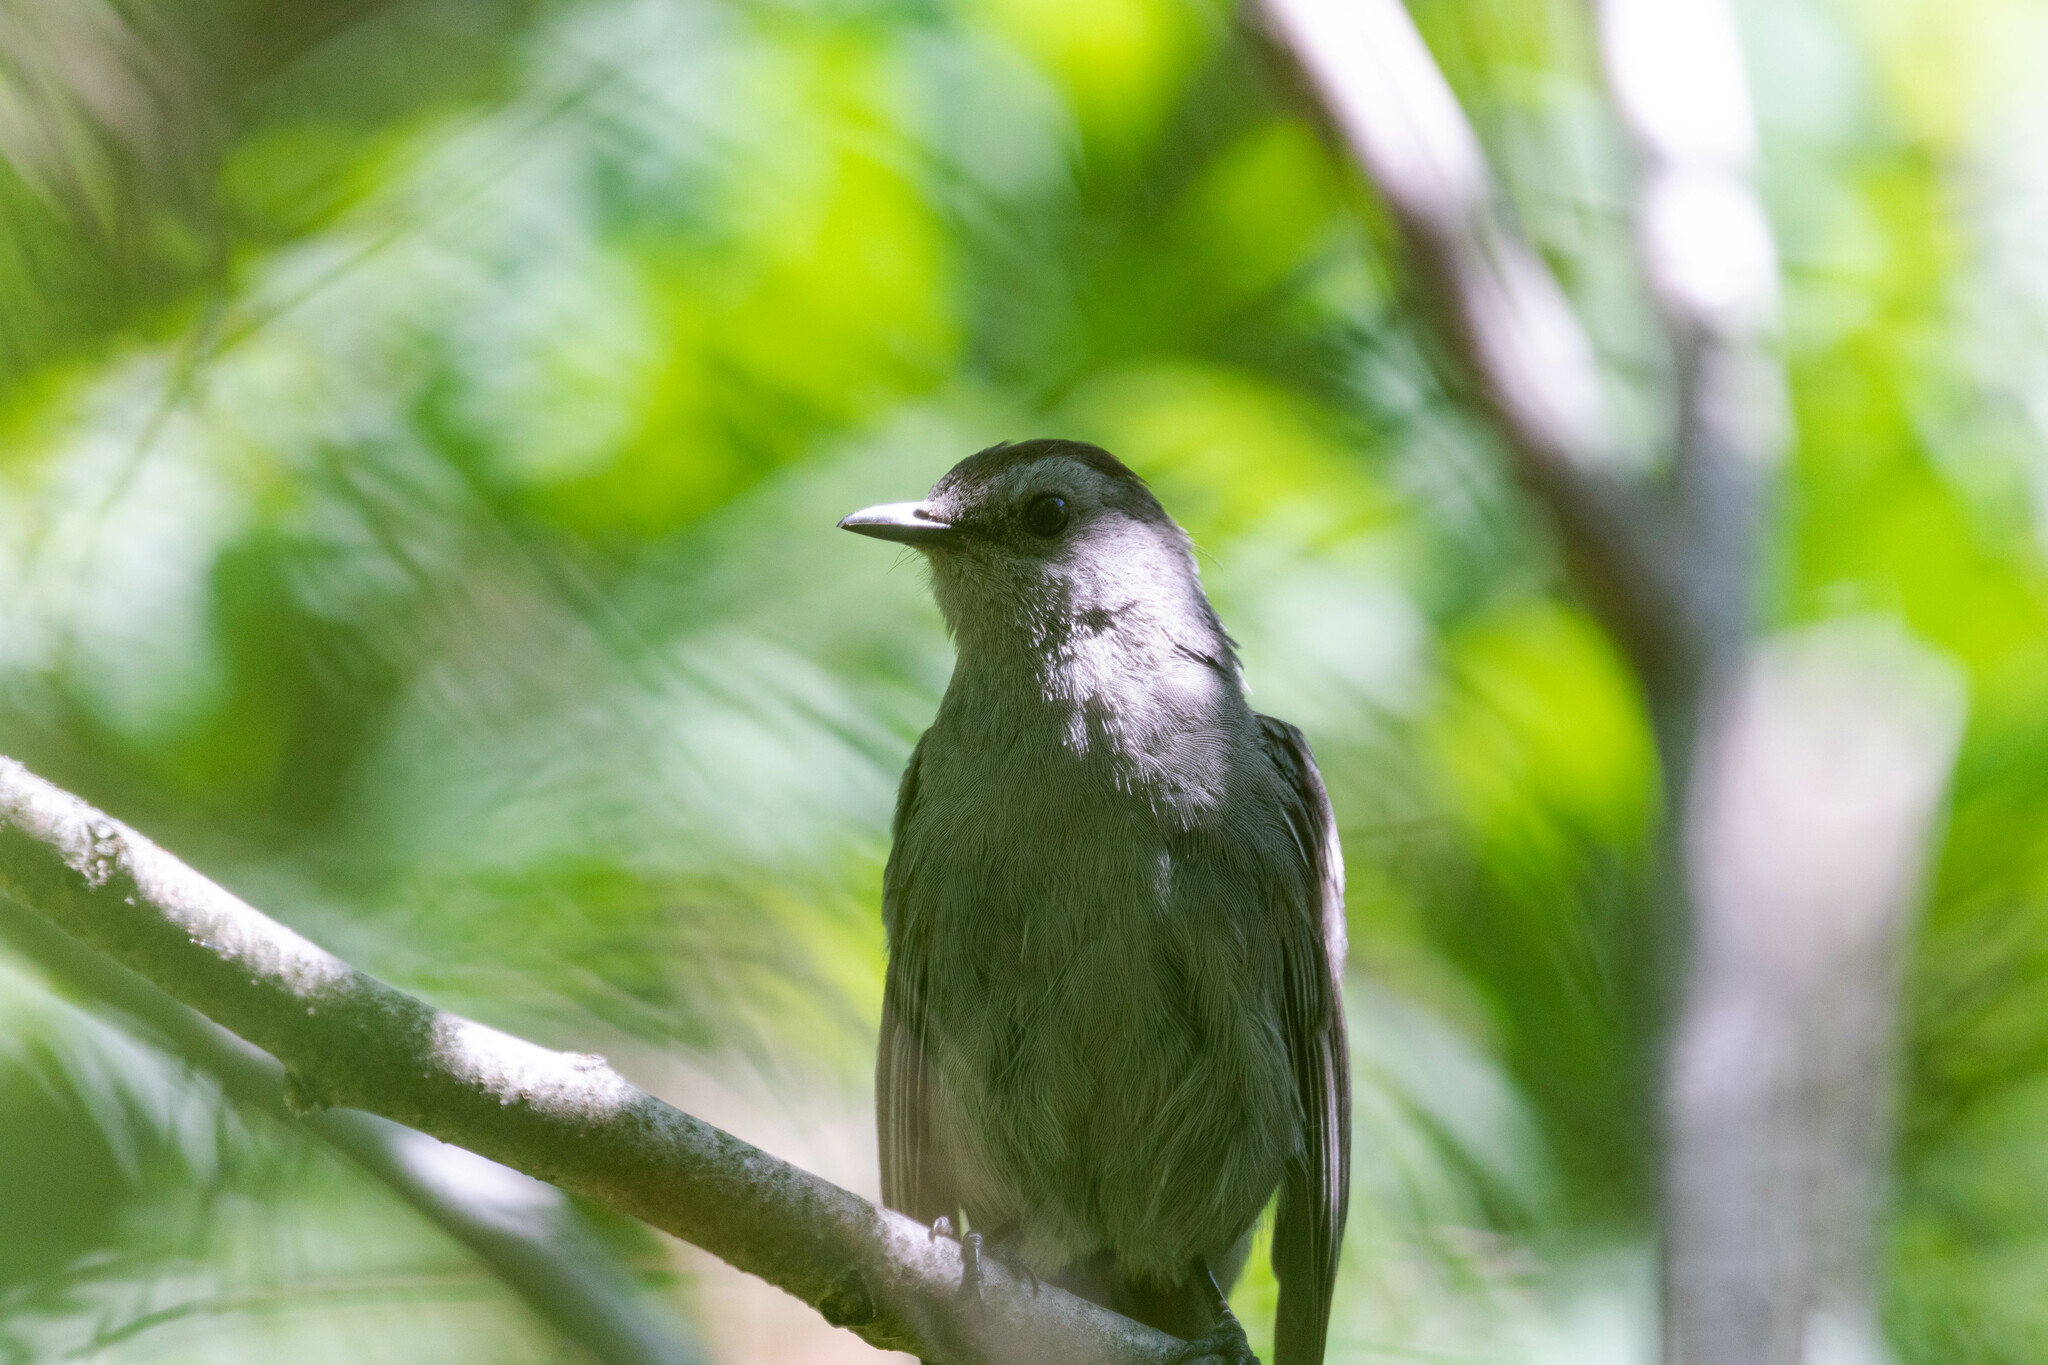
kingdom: Animalia
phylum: Chordata
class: Aves
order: Passeriformes
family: Mimidae
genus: Dumetella
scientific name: Dumetella carolinensis
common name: Gray catbird
